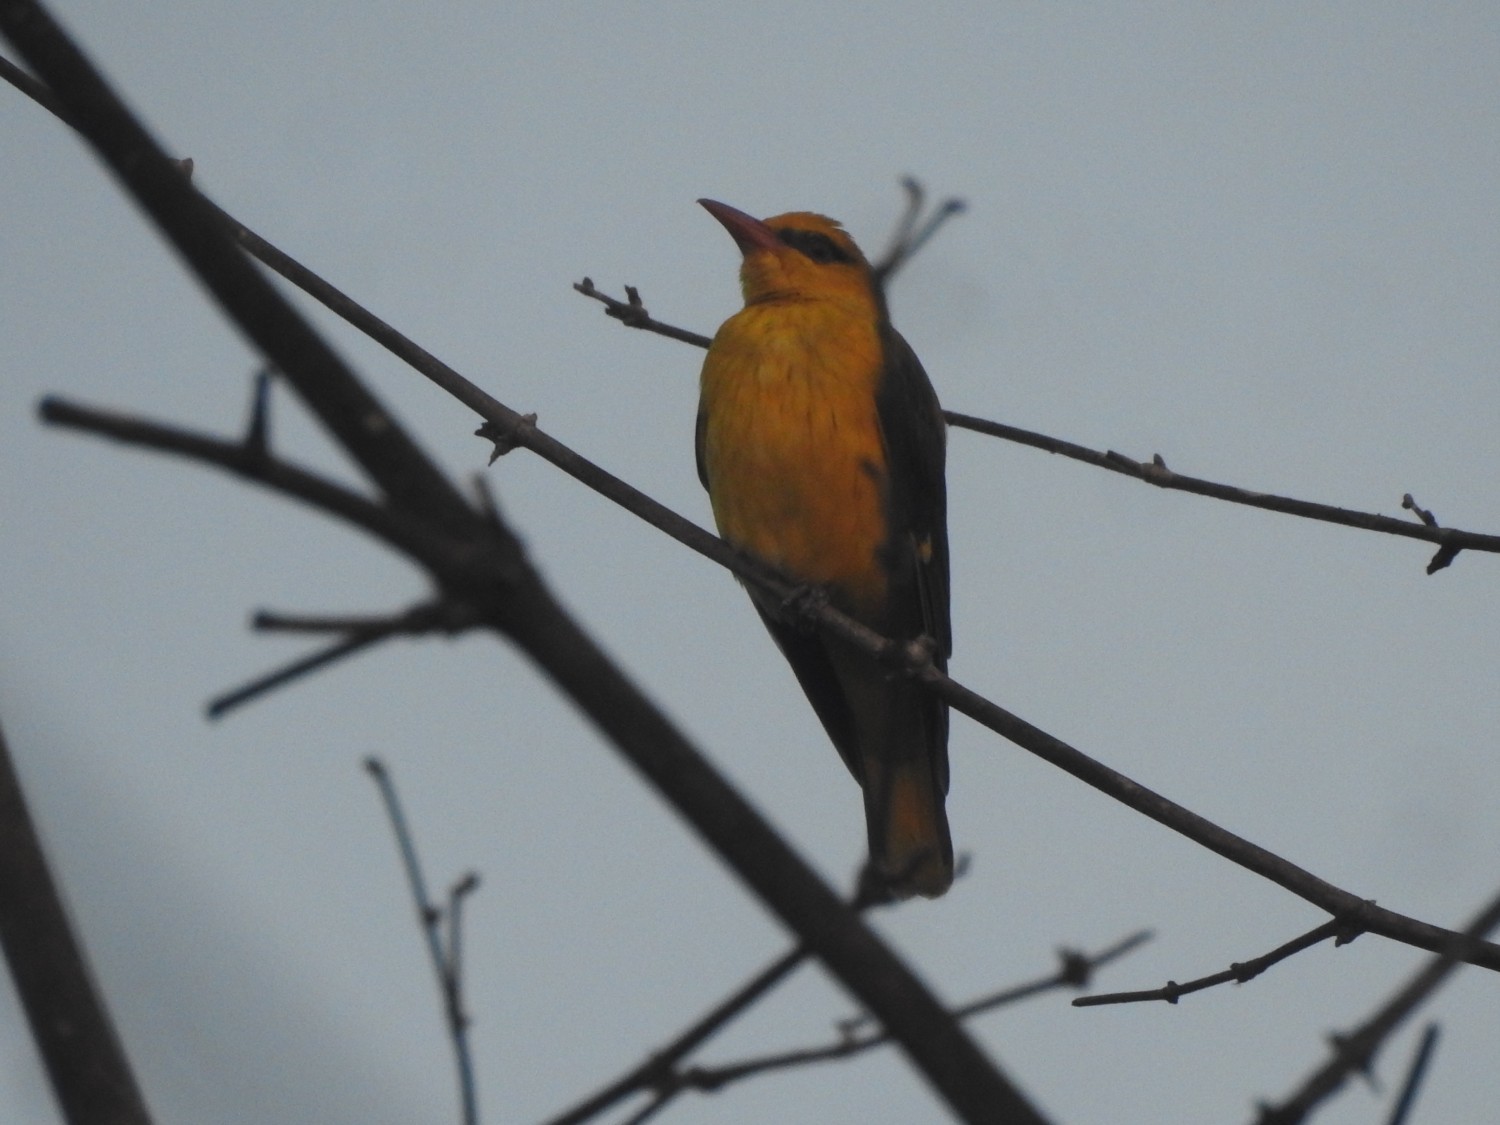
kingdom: Animalia
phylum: Chordata
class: Aves
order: Passeriformes
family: Oriolidae
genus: Oriolus
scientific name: Oriolus kundoo
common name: Indian golden oriole
